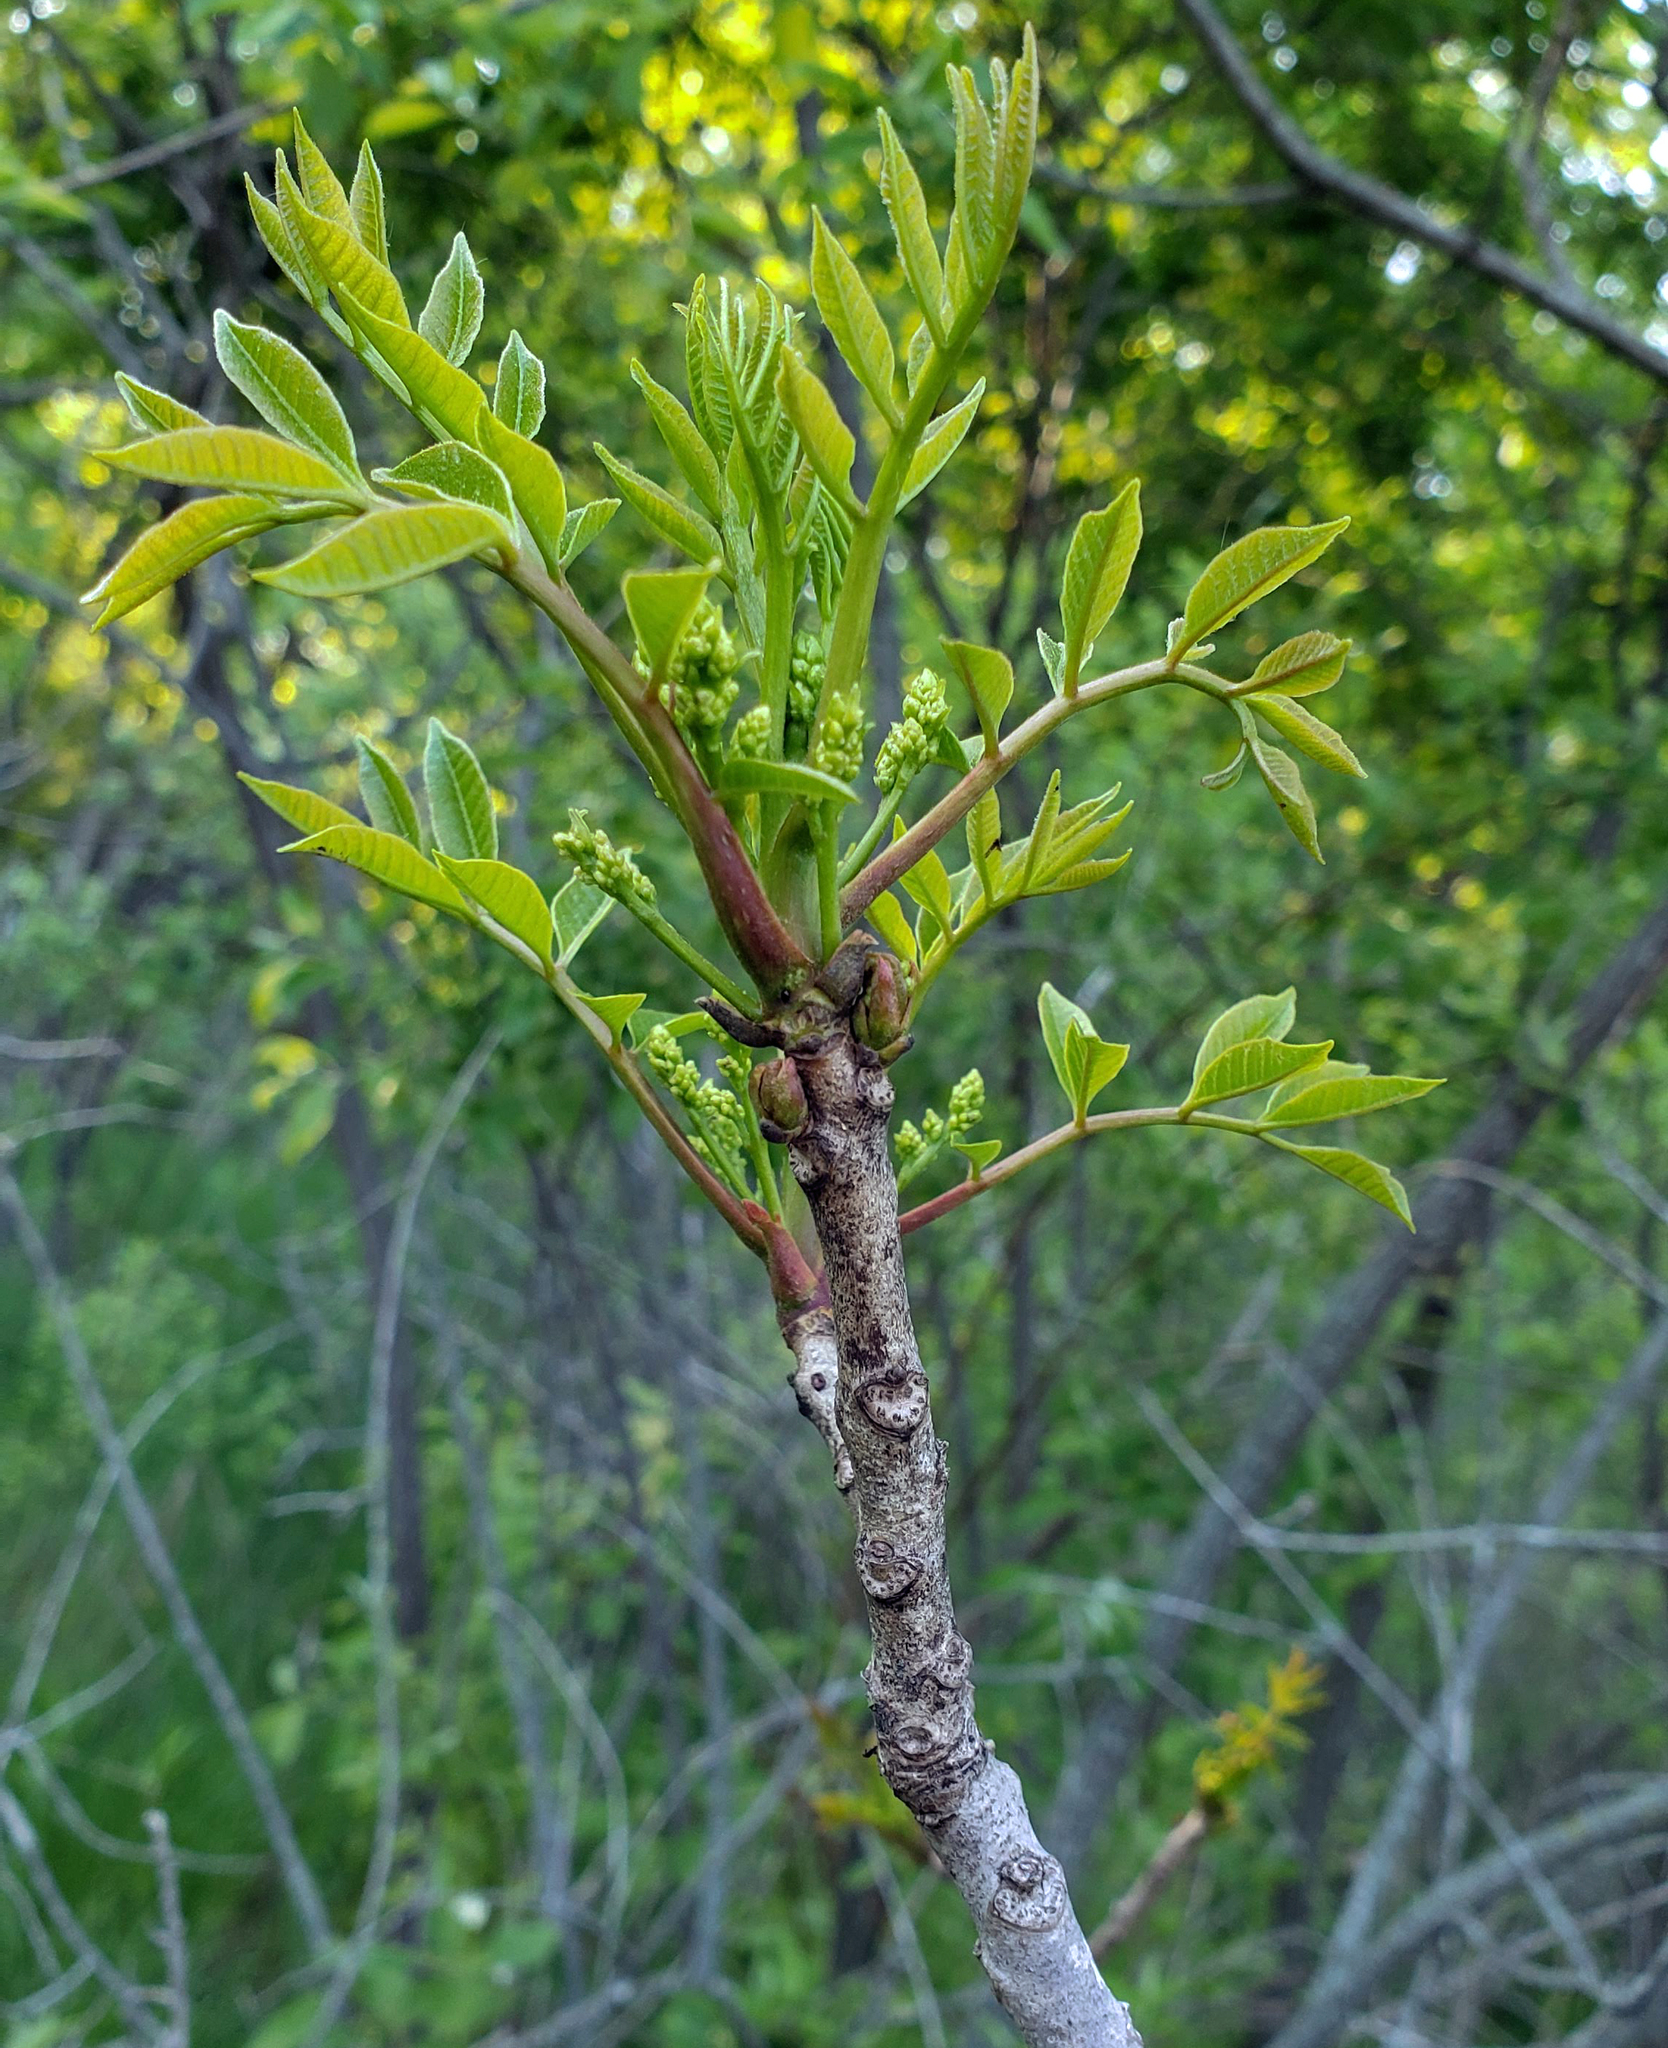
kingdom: Plantae
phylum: Tracheophyta
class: Magnoliopsida
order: Sapindales
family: Anacardiaceae
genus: Toxicodendron
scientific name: Toxicodendron vernix
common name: Poison sumac
